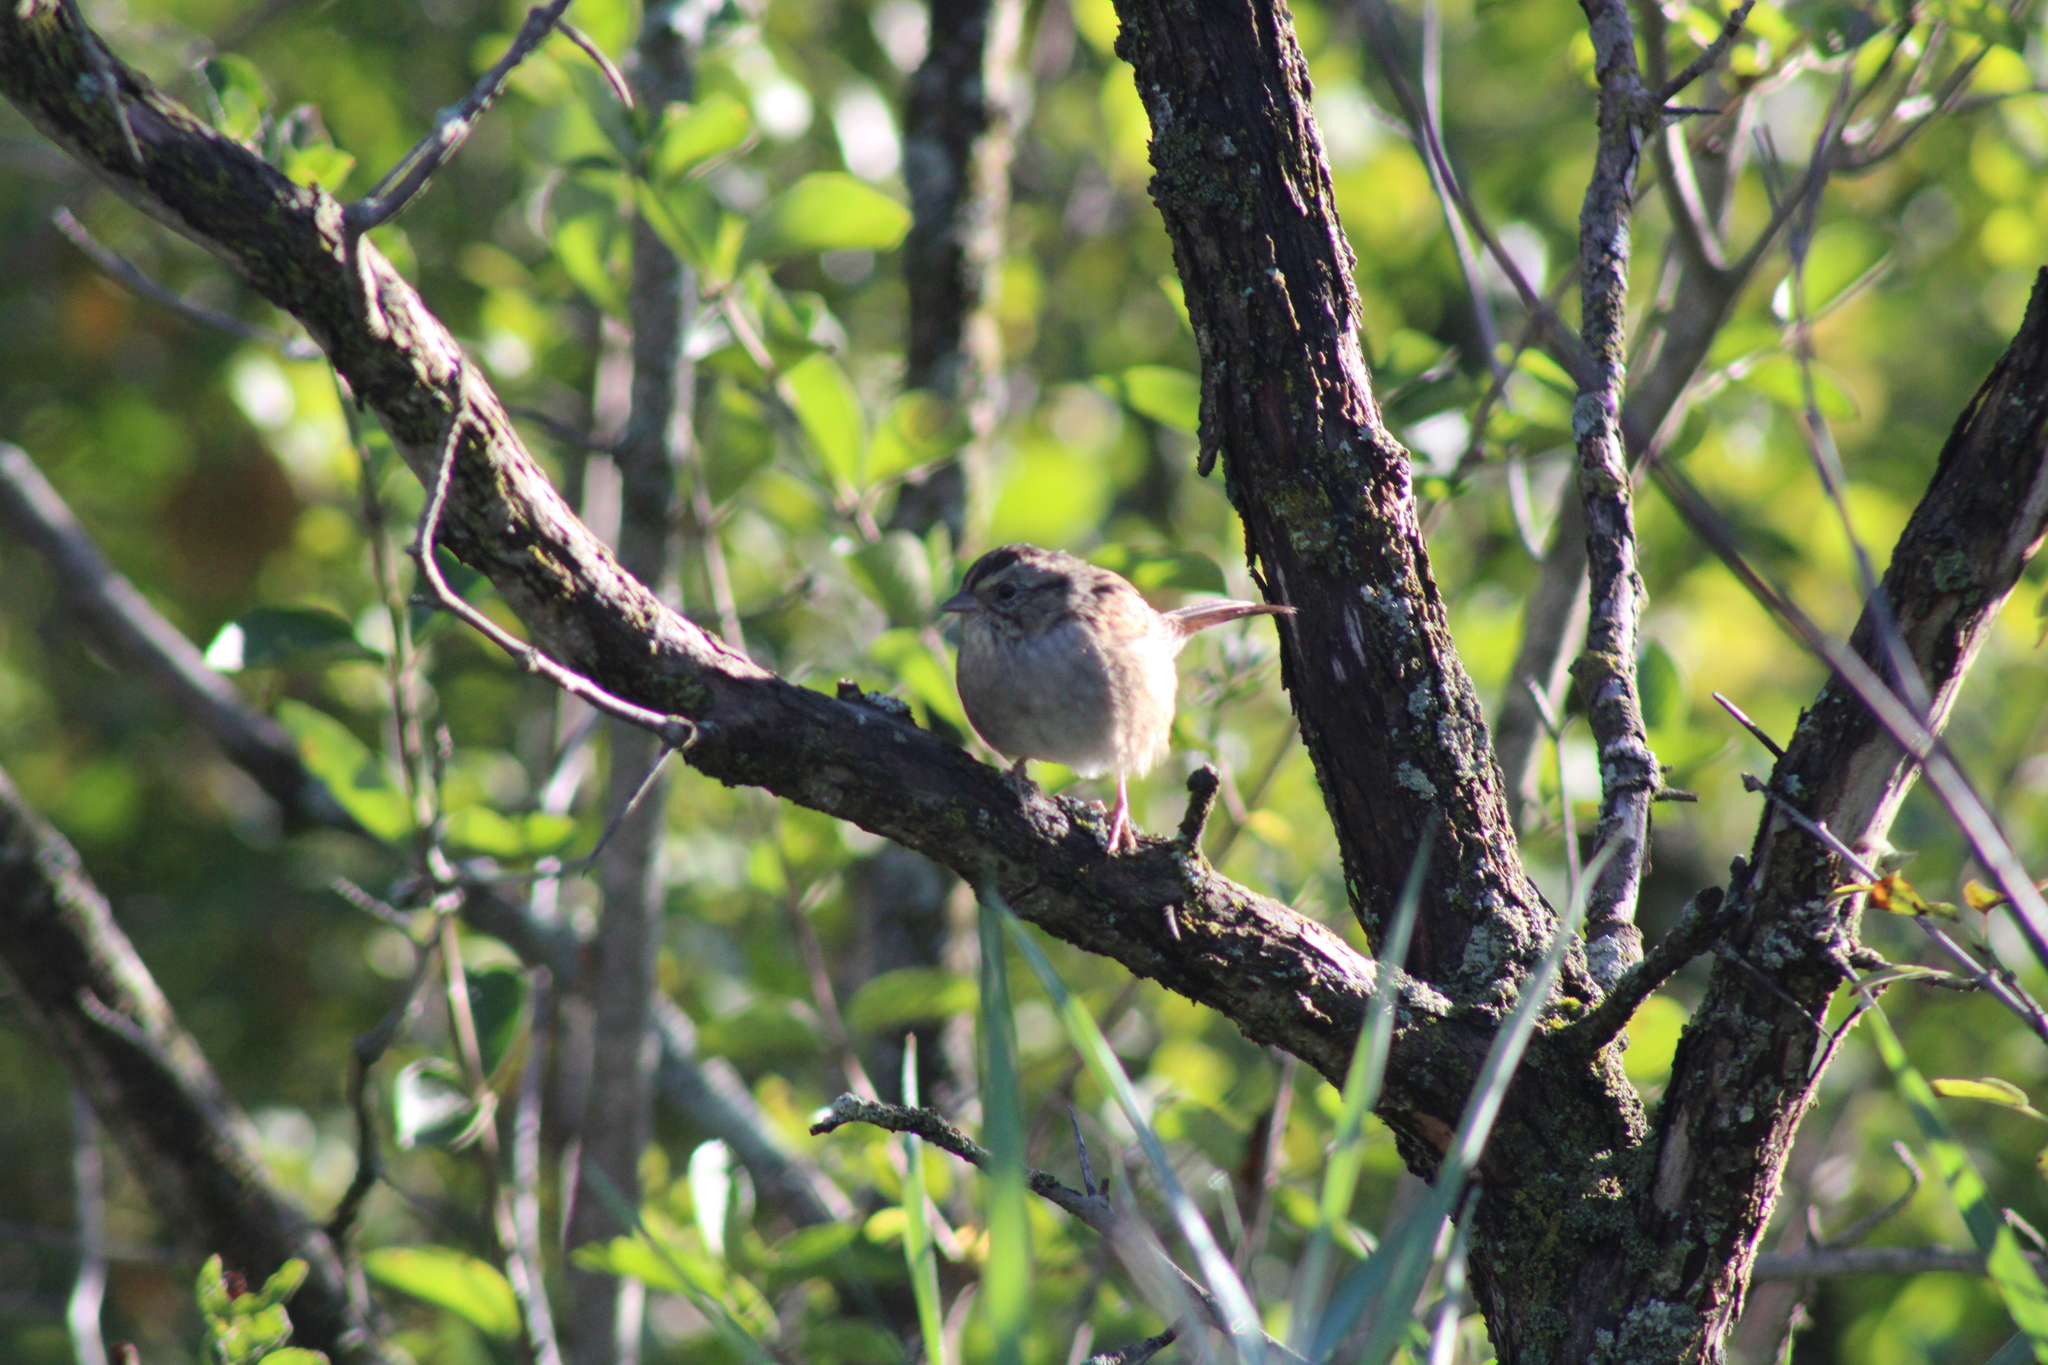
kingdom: Animalia
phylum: Chordata
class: Aves
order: Passeriformes
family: Passerellidae
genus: Melospiza
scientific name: Melospiza georgiana
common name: Swamp sparrow
